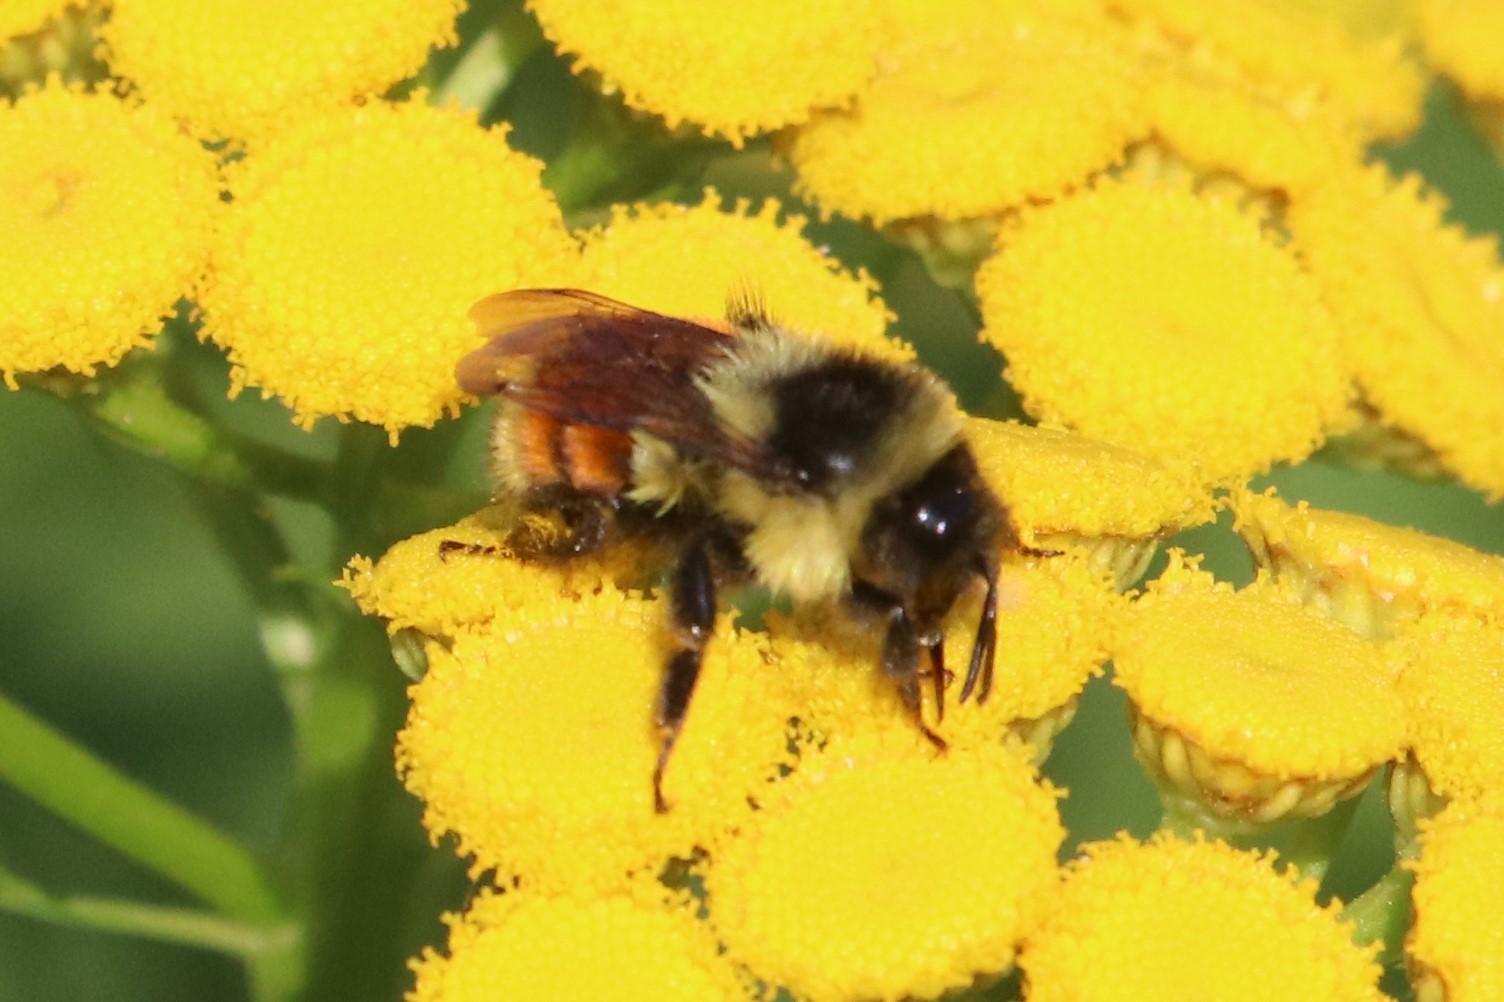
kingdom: Animalia
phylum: Arthropoda
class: Insecta
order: Hymenoptera
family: Apidae
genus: Bombus
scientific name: Bombus ternarius
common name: Tri-colored bumble bee
